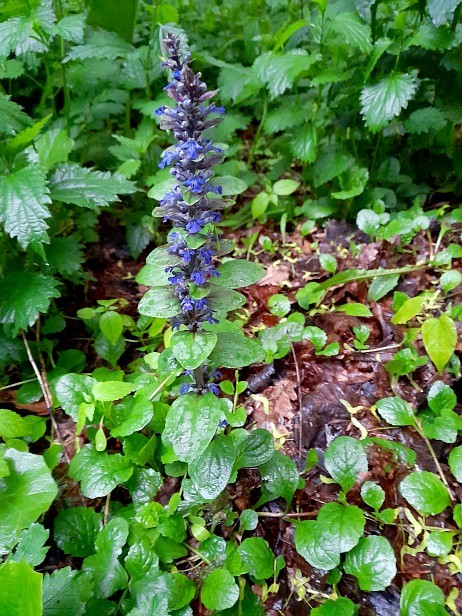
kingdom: Plantae
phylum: Tracheophyta
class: Magnoliopsida
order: Lamiales
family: Lamiaceae
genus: Ajuga
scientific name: Ajuga reptans
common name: Bugle
